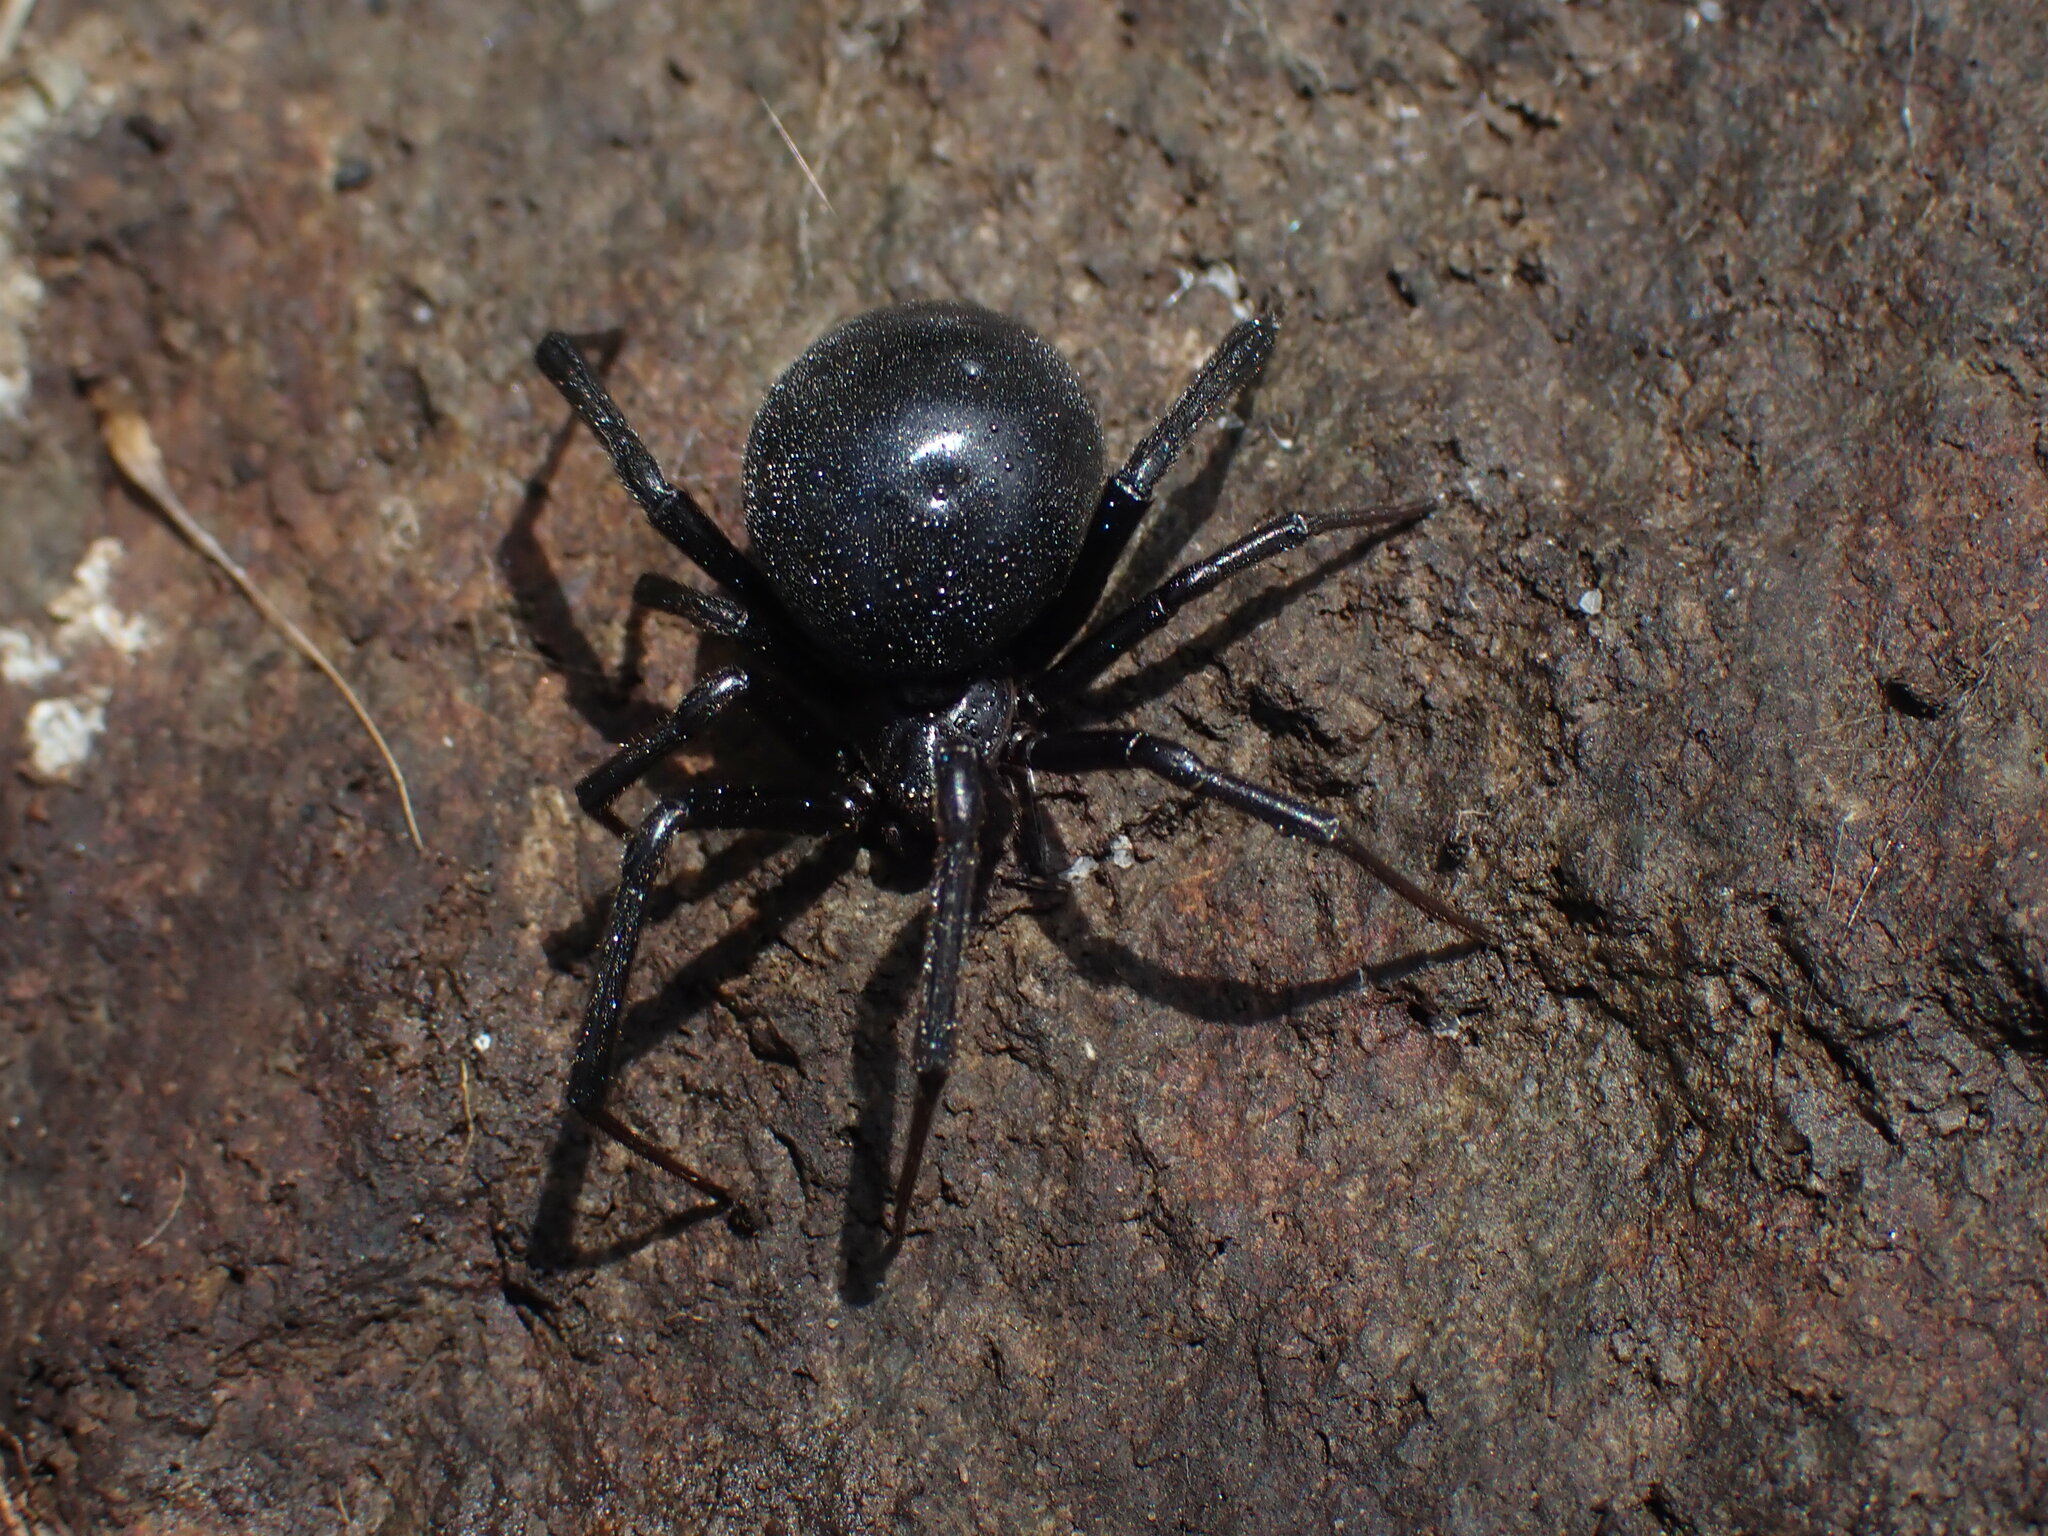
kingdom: Animalia
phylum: Arthropoda
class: Arachnida
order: Araneae
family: Theridiidae
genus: Latrodectus
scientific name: Latrodectus hesperus
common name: Western black widow
